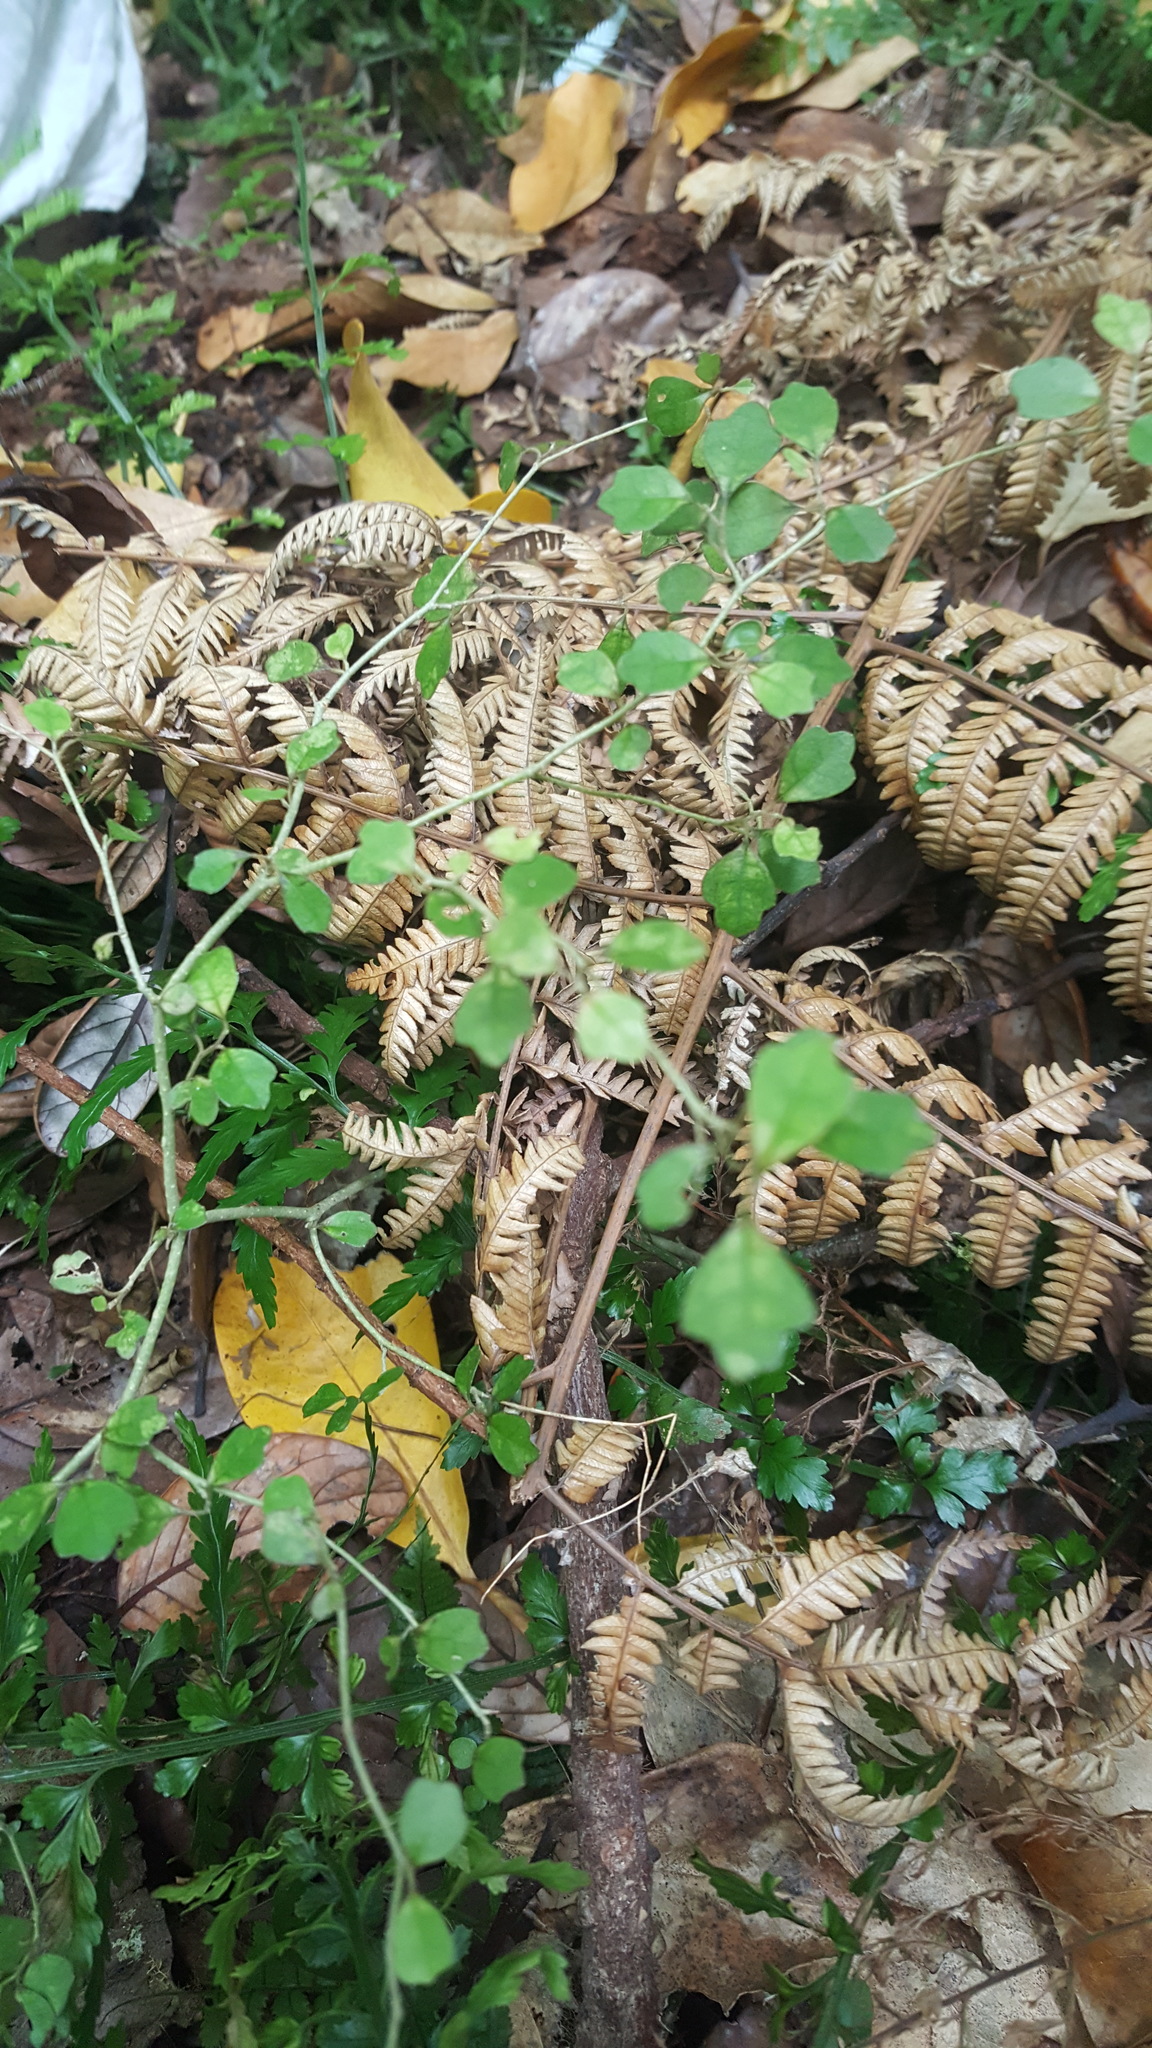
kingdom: Plantae
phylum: Tracheophyta
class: Magnoliopsida
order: Apiales
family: Pennantiaceae
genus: Pennantia
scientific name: Pennantia corymbosa
